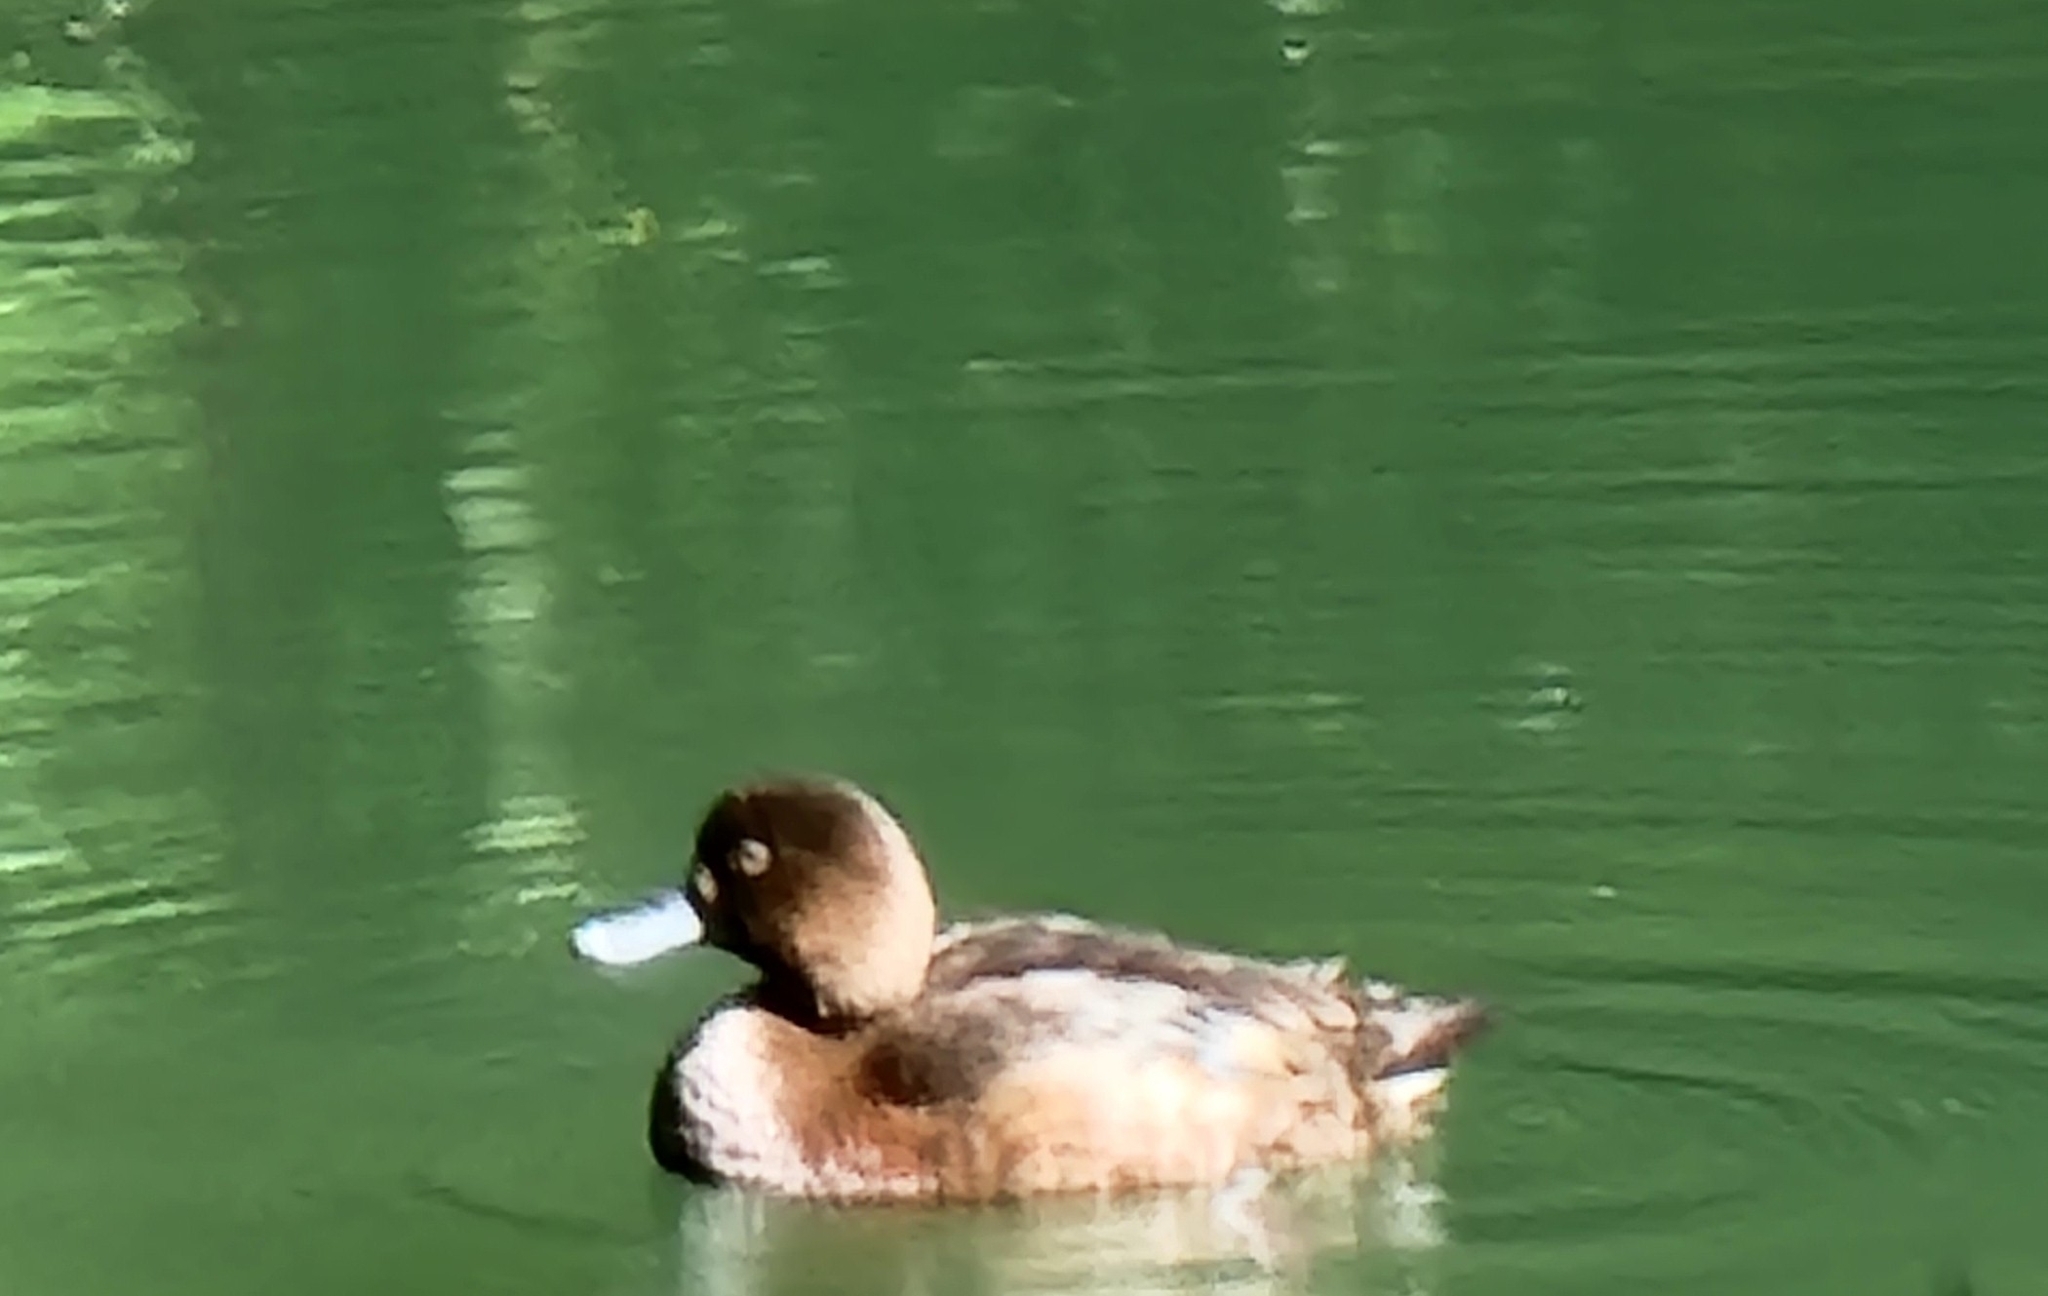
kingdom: Animalia
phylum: Chordata
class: Aves
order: Anseriformes
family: Anatidae
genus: Aythya
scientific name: Aythya novaeseelandiae
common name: New zealand scaup
